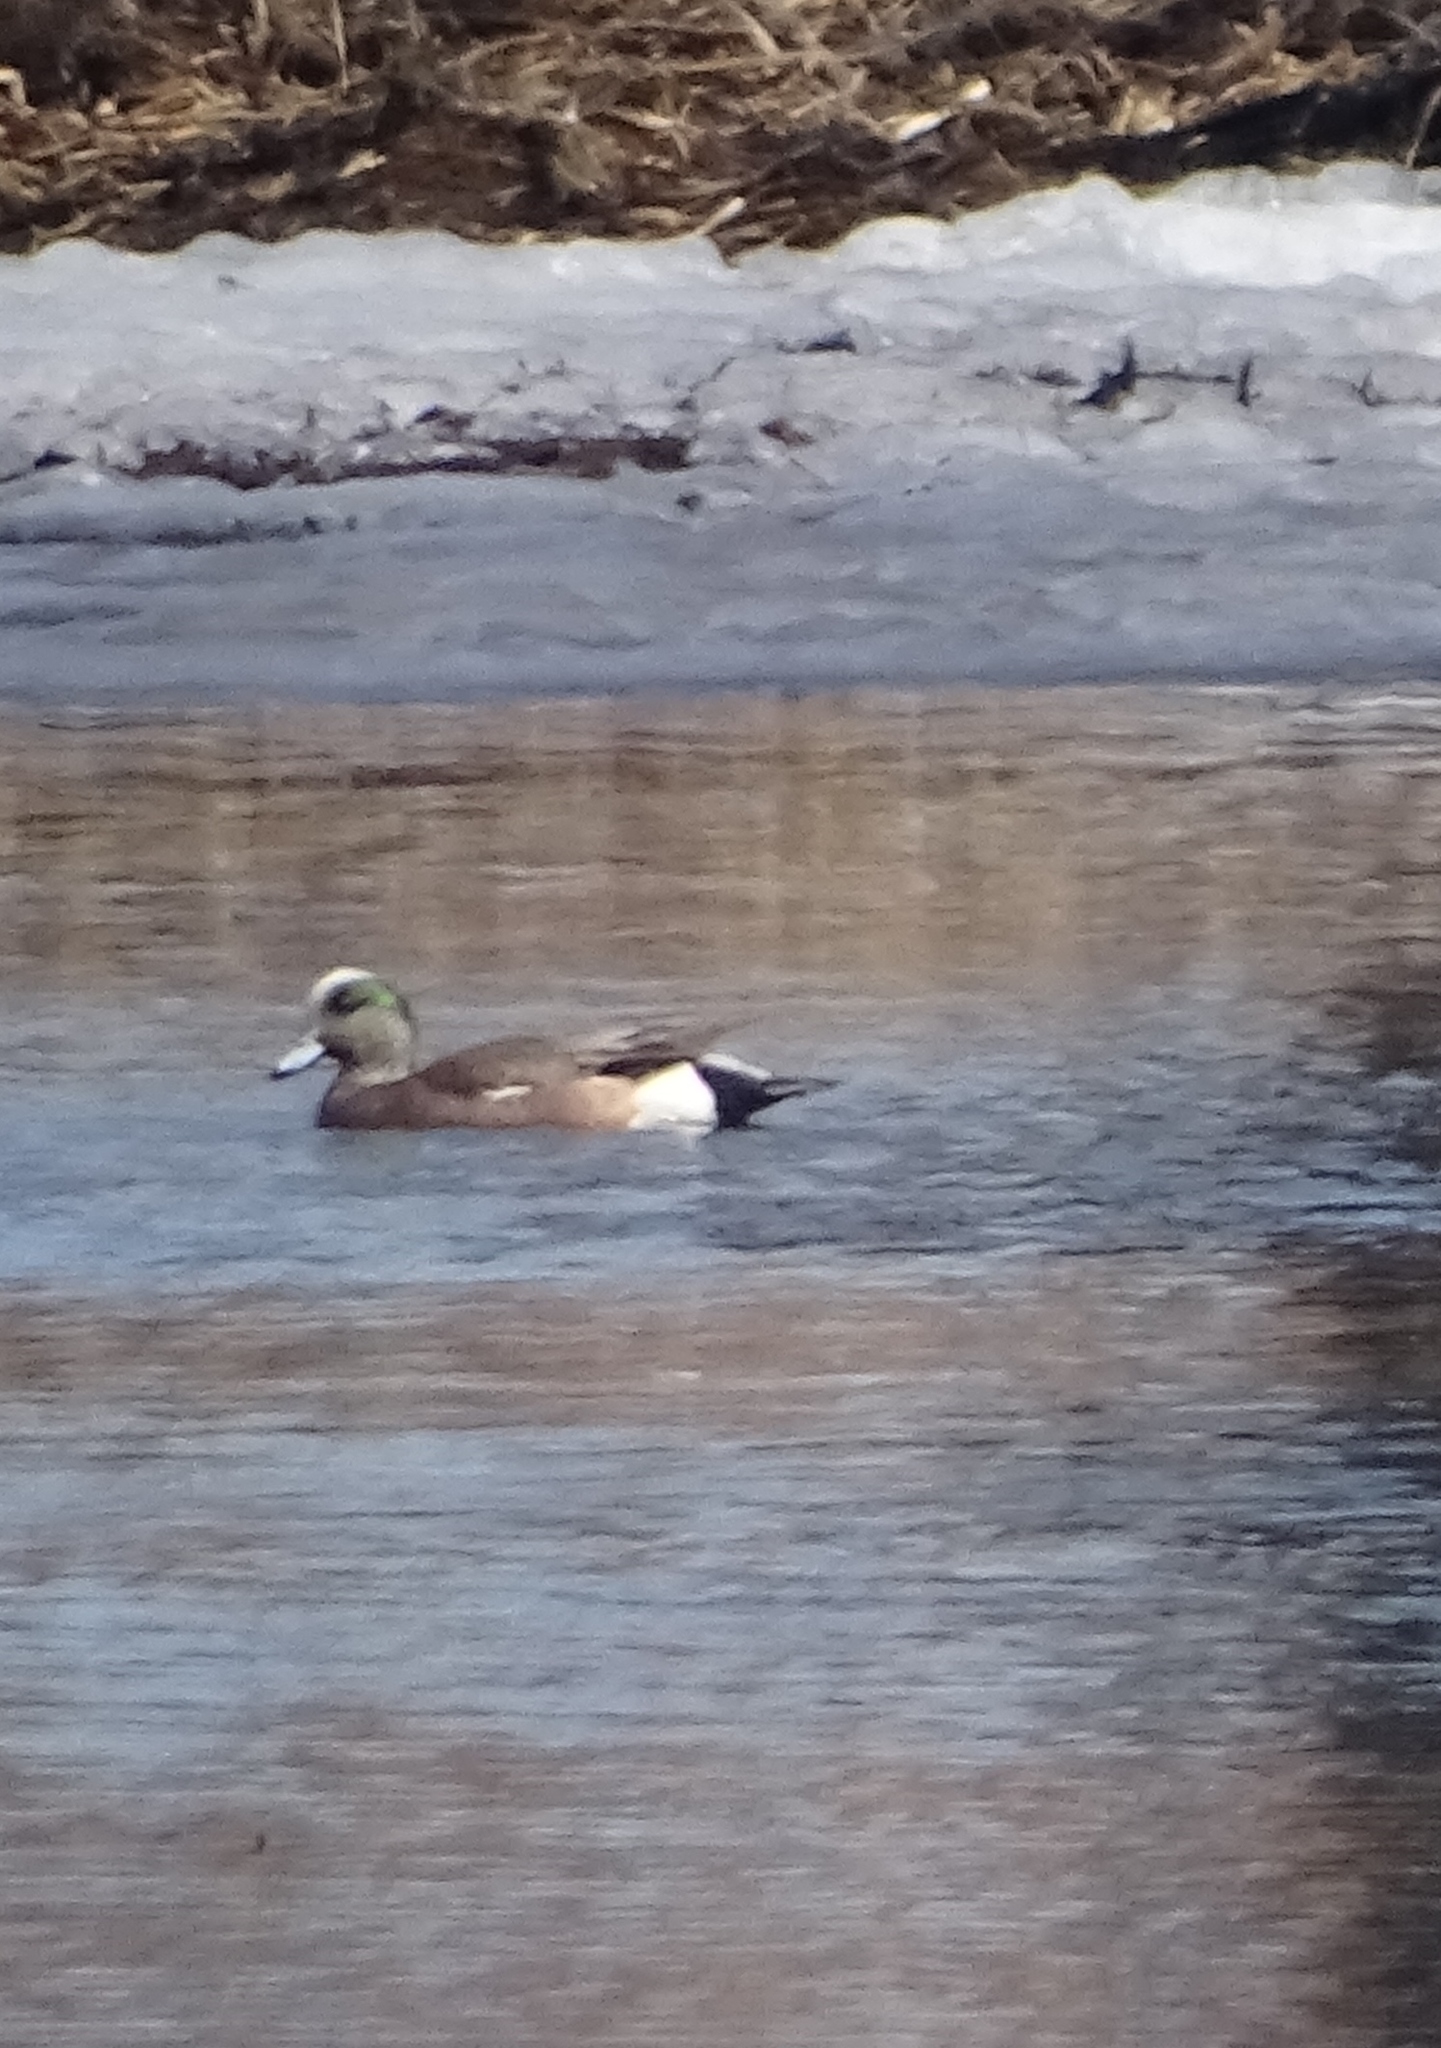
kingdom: Animalia
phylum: Chordata
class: Aves
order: Anseriformes
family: Anatidae
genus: Mareca
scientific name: Mareca americana
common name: American wigeon
